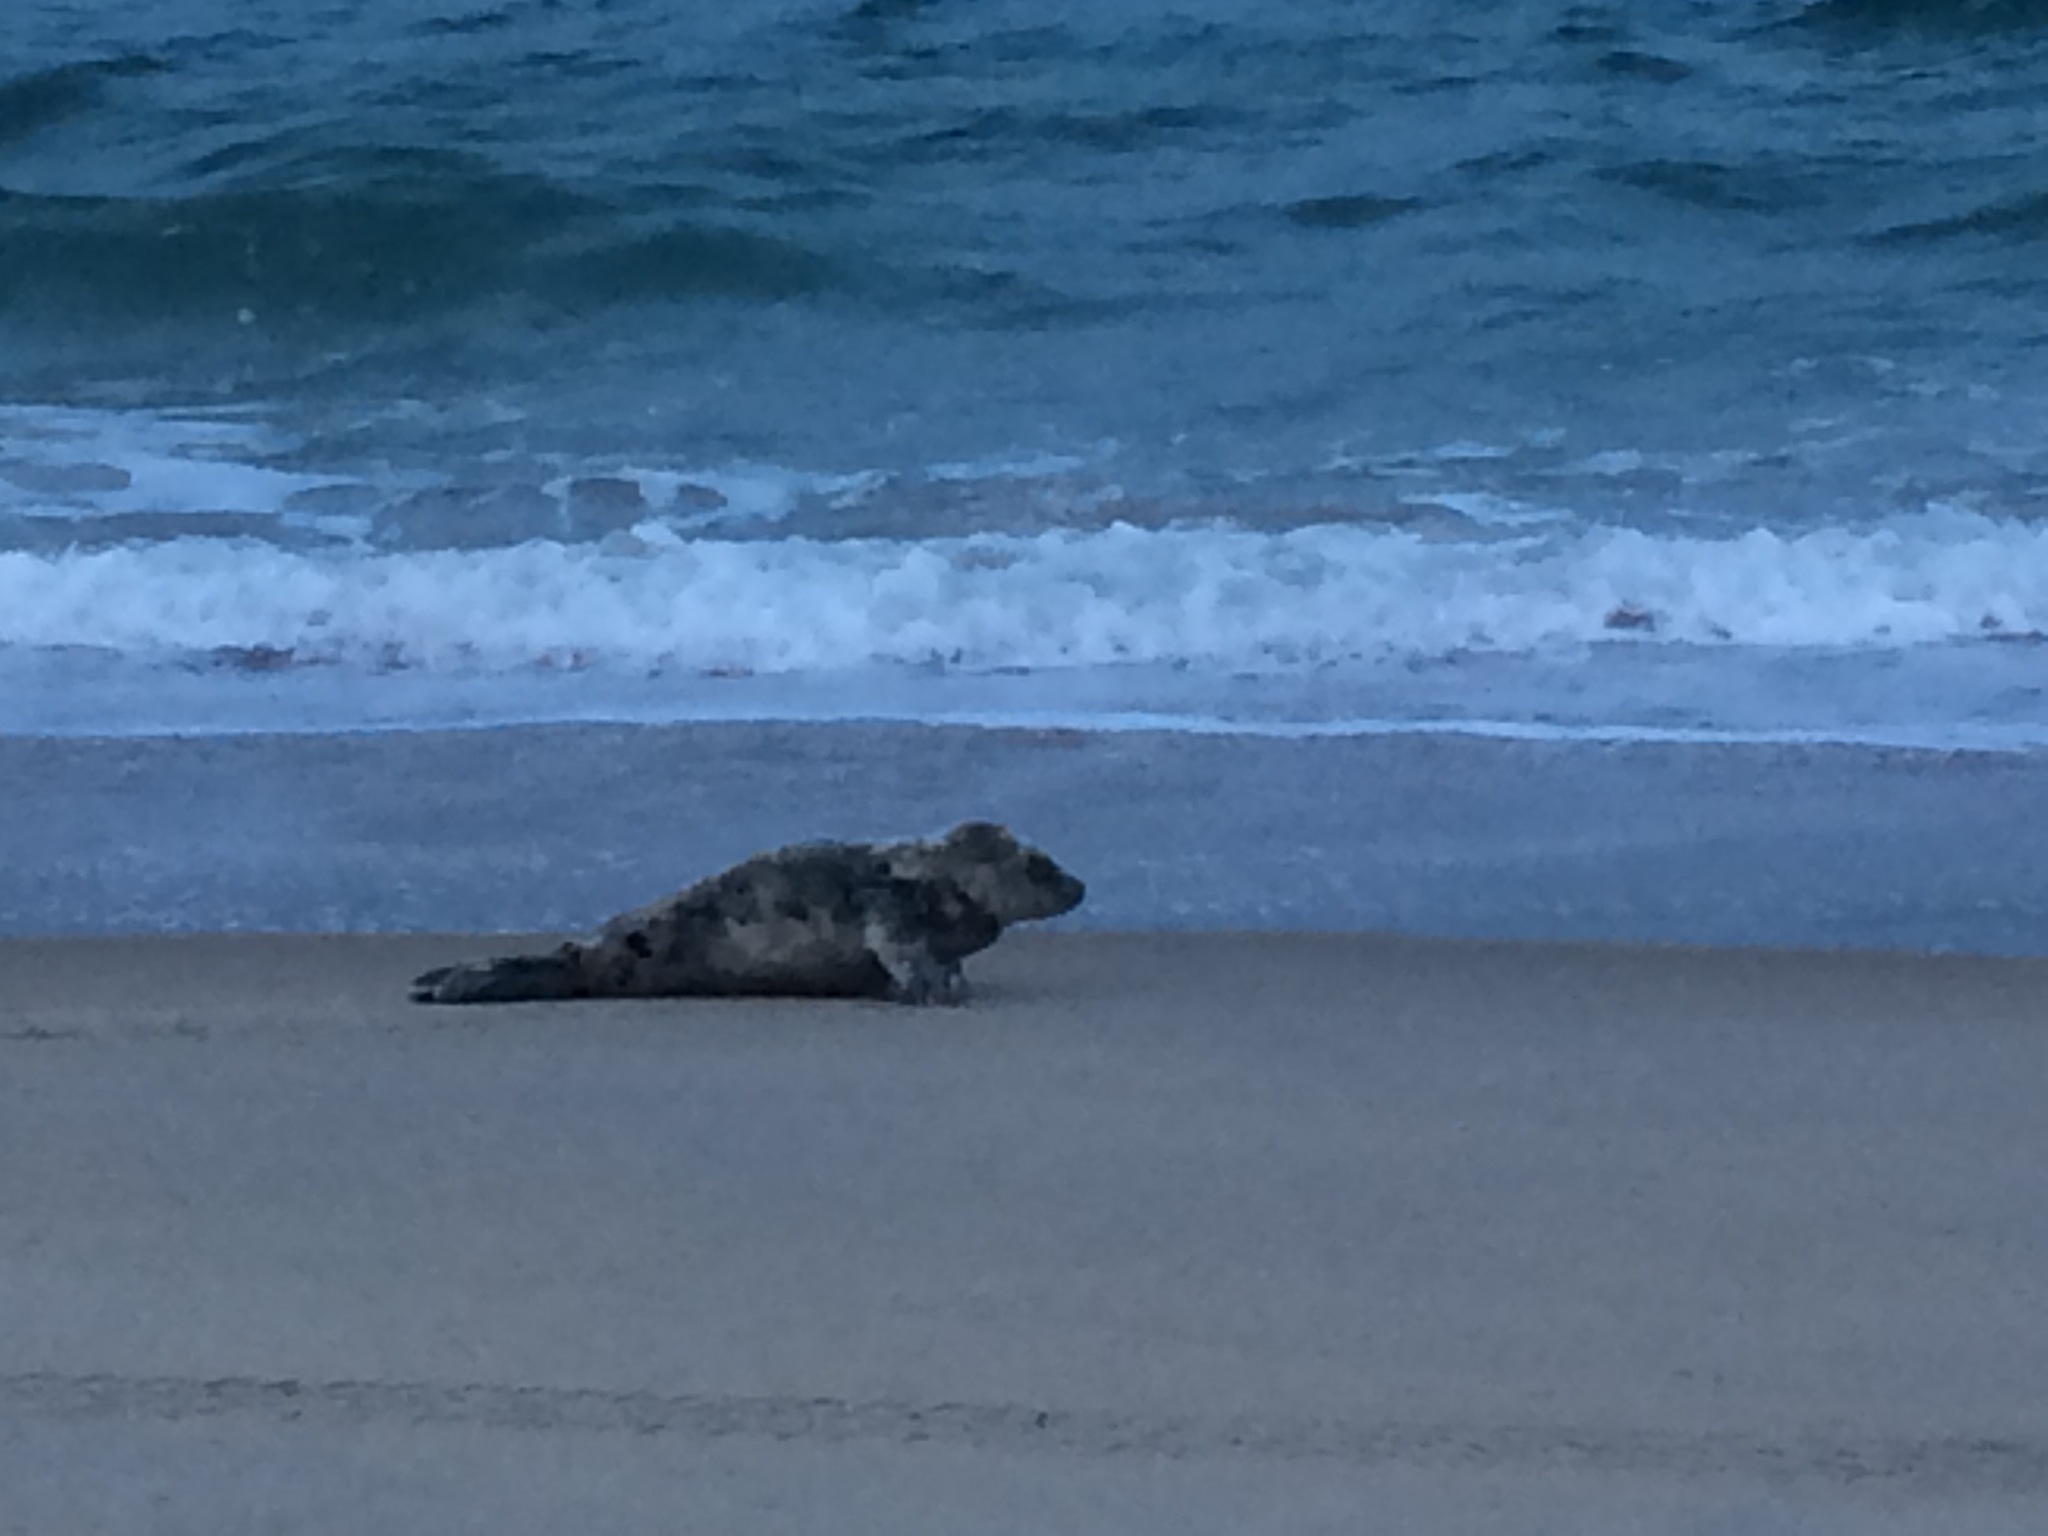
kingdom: Animalia
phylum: Chordata
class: Mammalia
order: Carnivora
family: Phocidae
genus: Halichoerus
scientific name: Halichoerus grypus
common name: Grey seal
